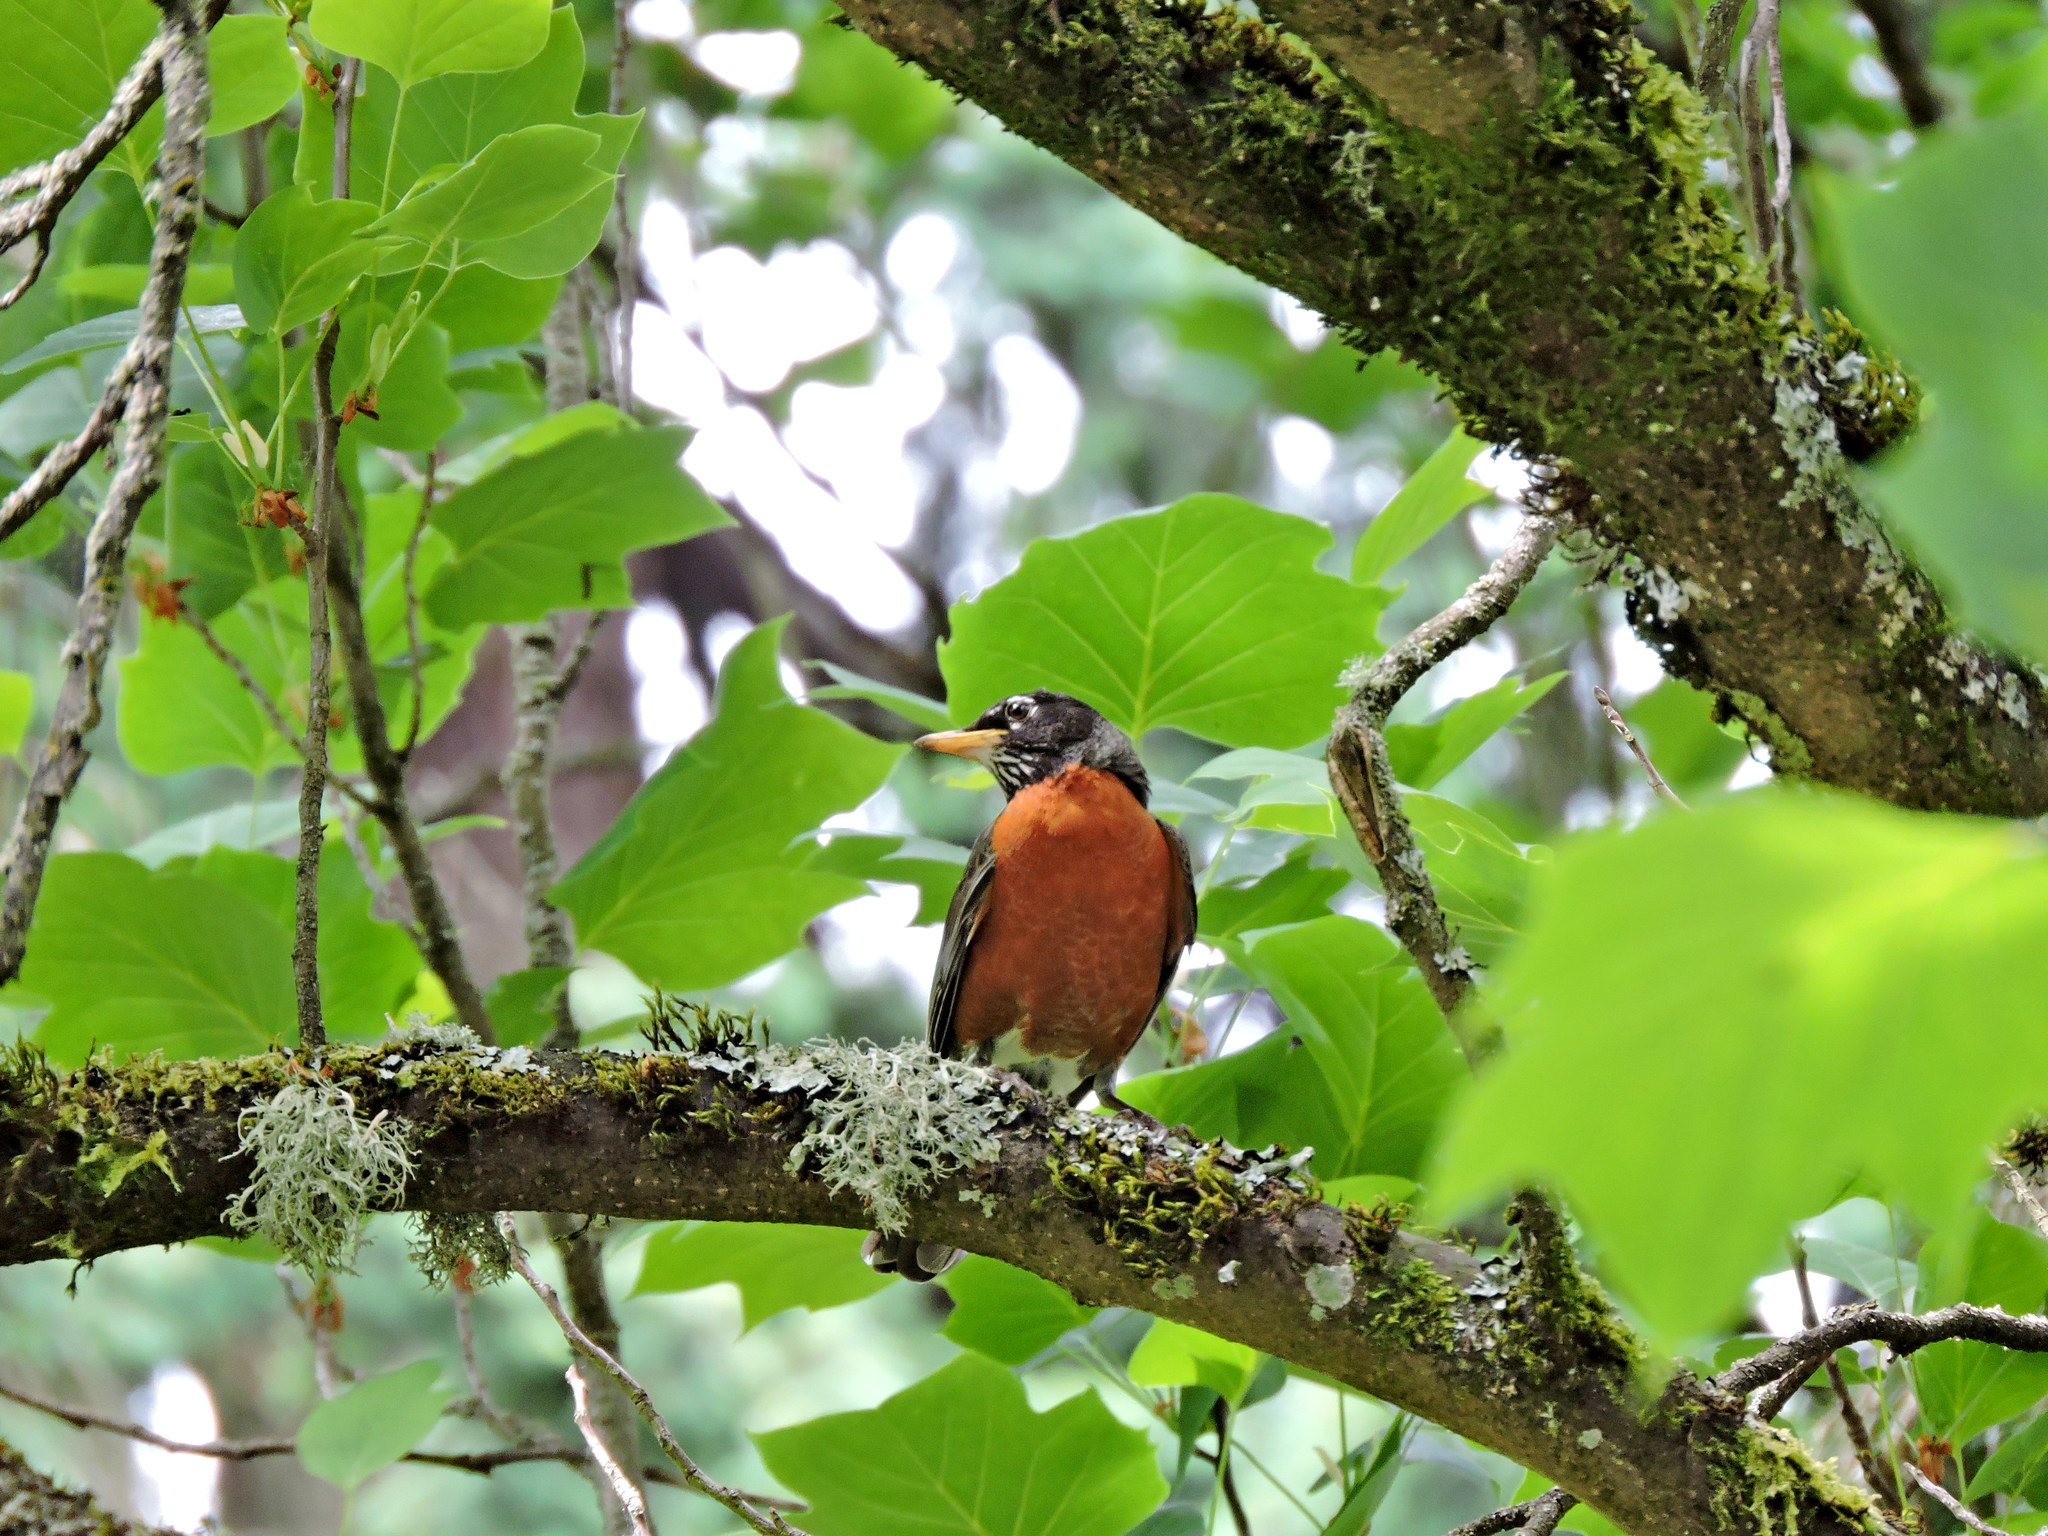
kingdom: Animalia
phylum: Chordata
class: Aves
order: Passeriformes
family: Turdidae
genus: Turdus
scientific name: Turdus migratorius
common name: American robin
